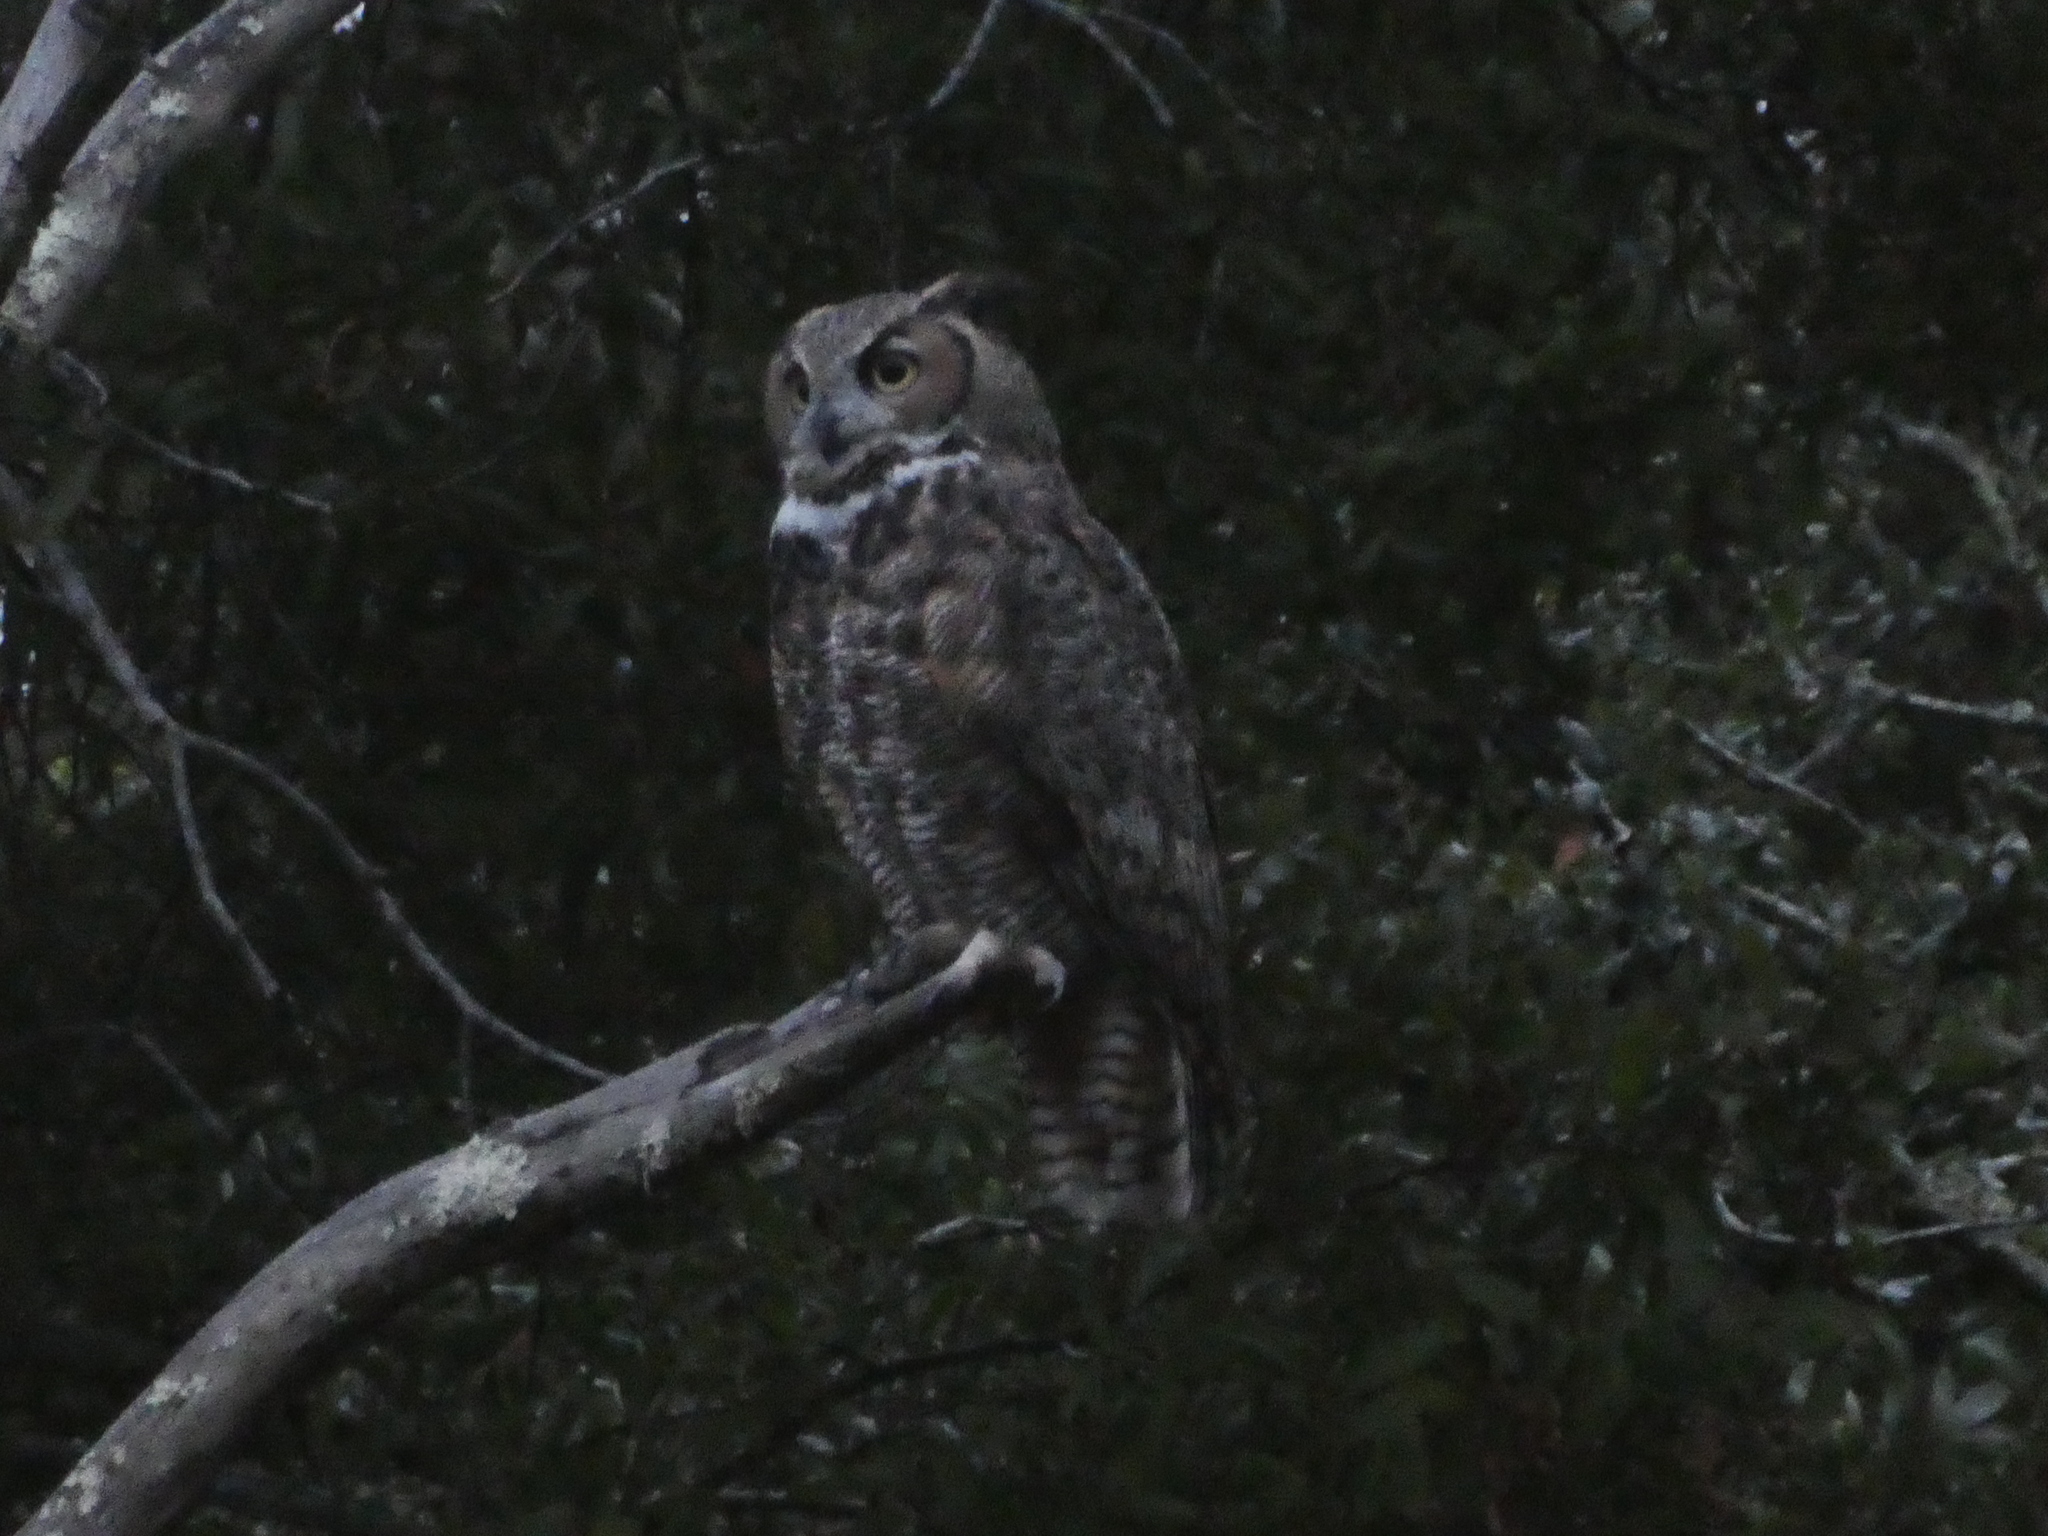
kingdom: Animalia
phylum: Chordata
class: Aves
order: Strigiformes
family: Strigidae
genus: Bubo
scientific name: Bubo virginianus
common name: Great horned owl
